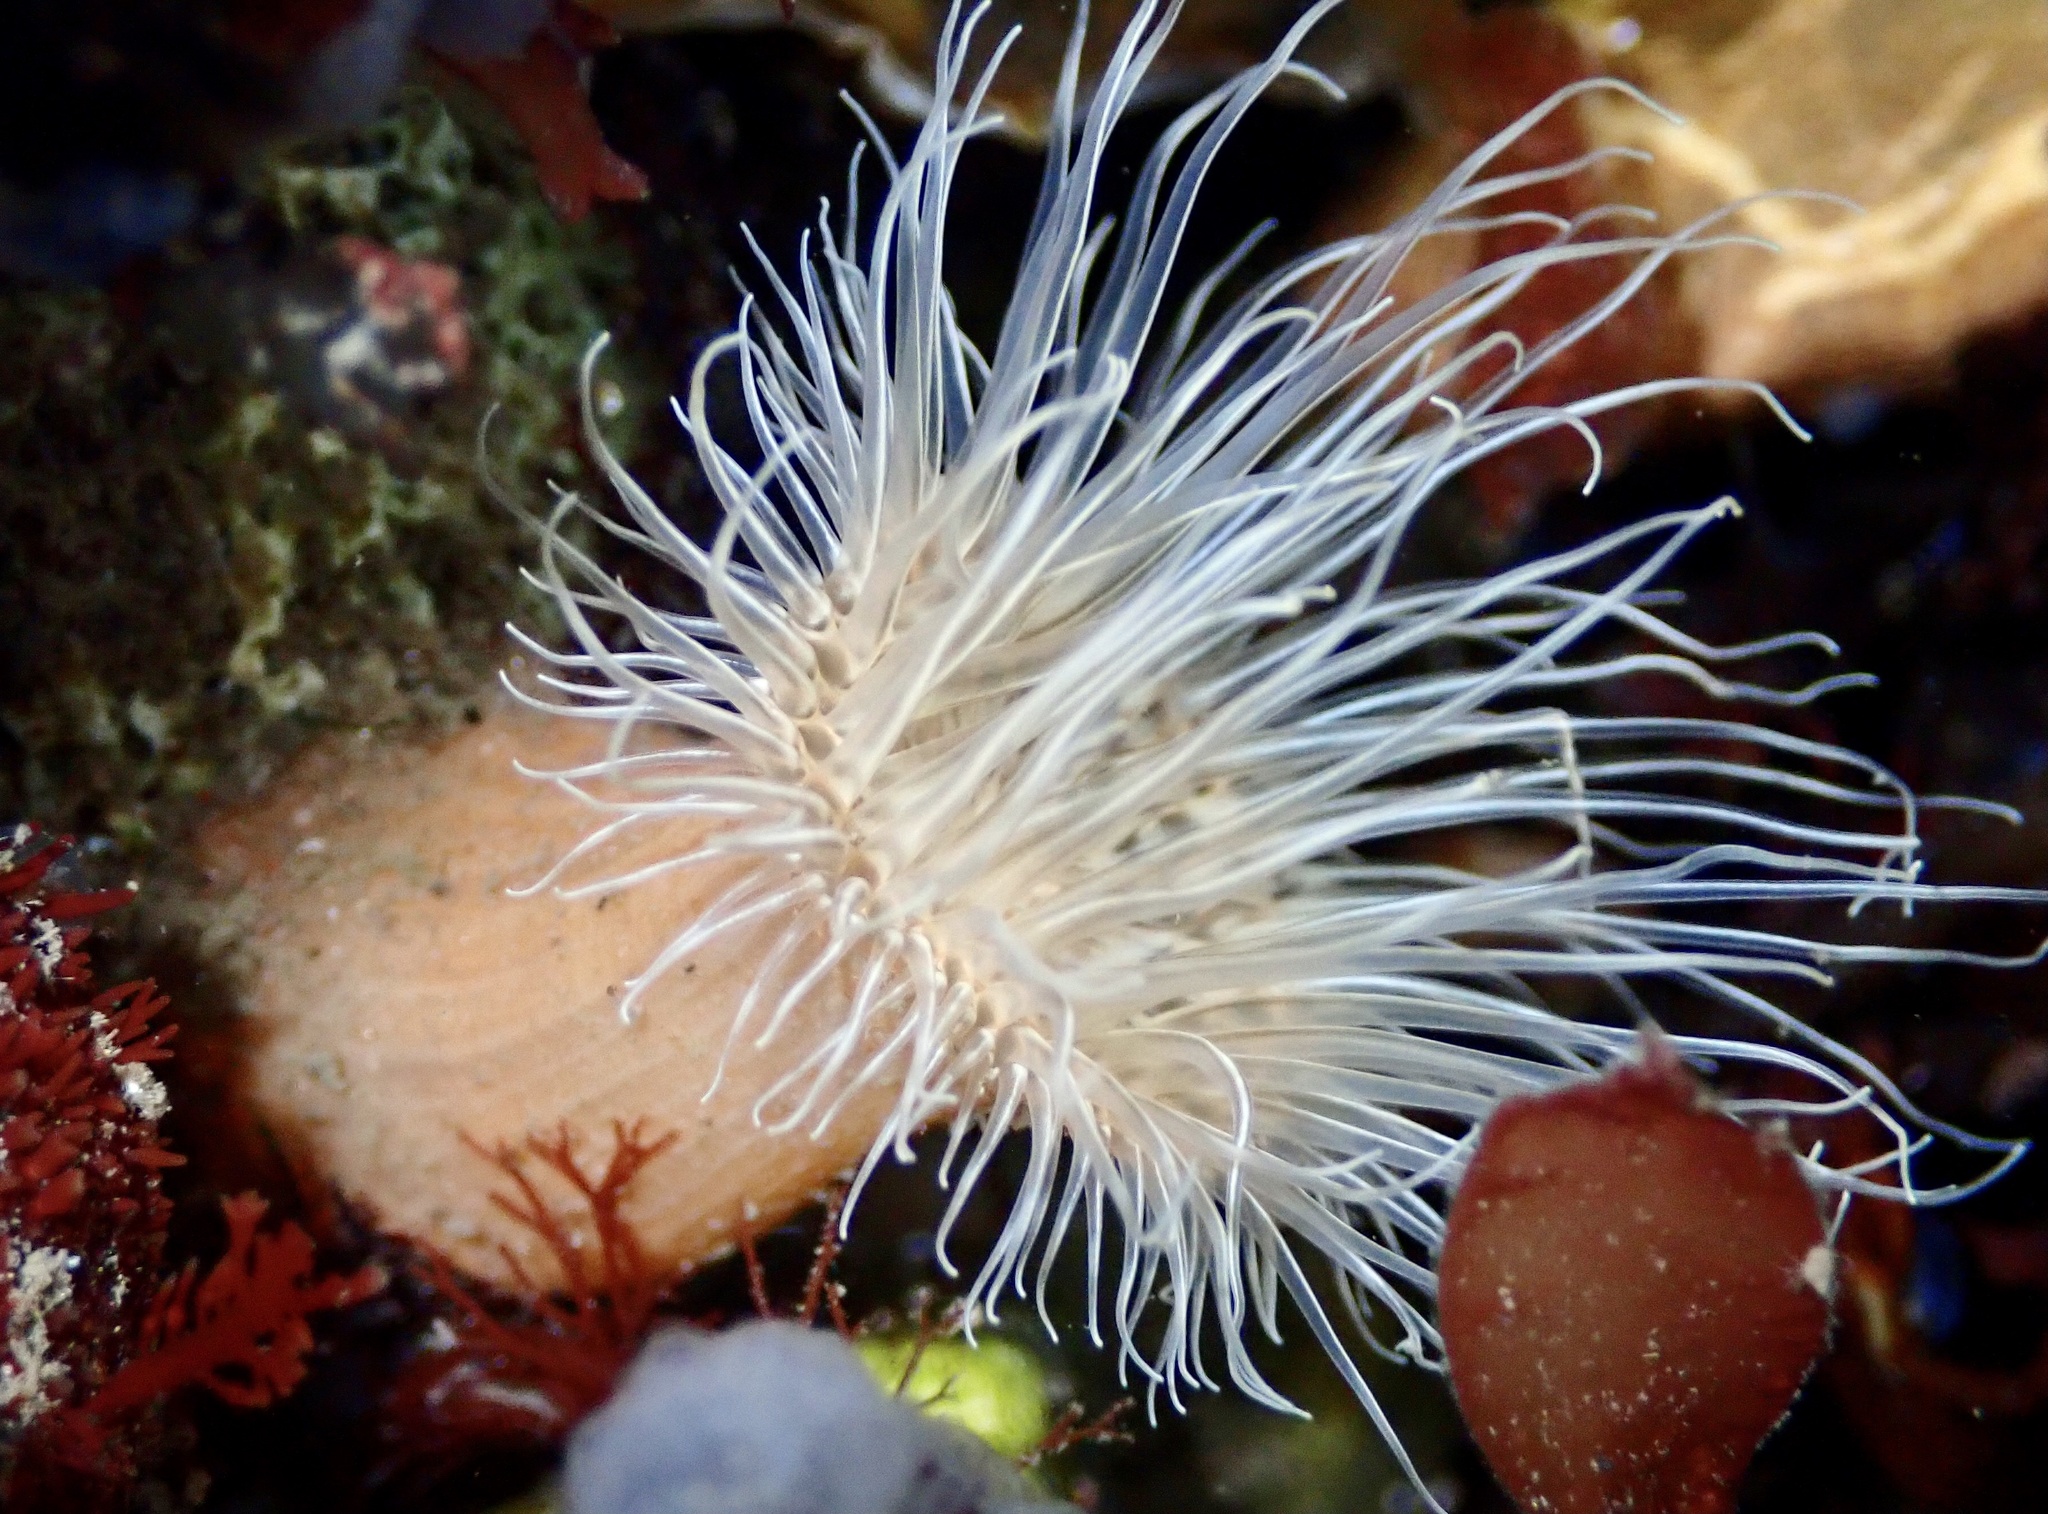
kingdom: Animalia
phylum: Cnidaria
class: Anthozoa
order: Actiniaria
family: Sagartiidae
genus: Sagartia
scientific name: Sagartia undata
